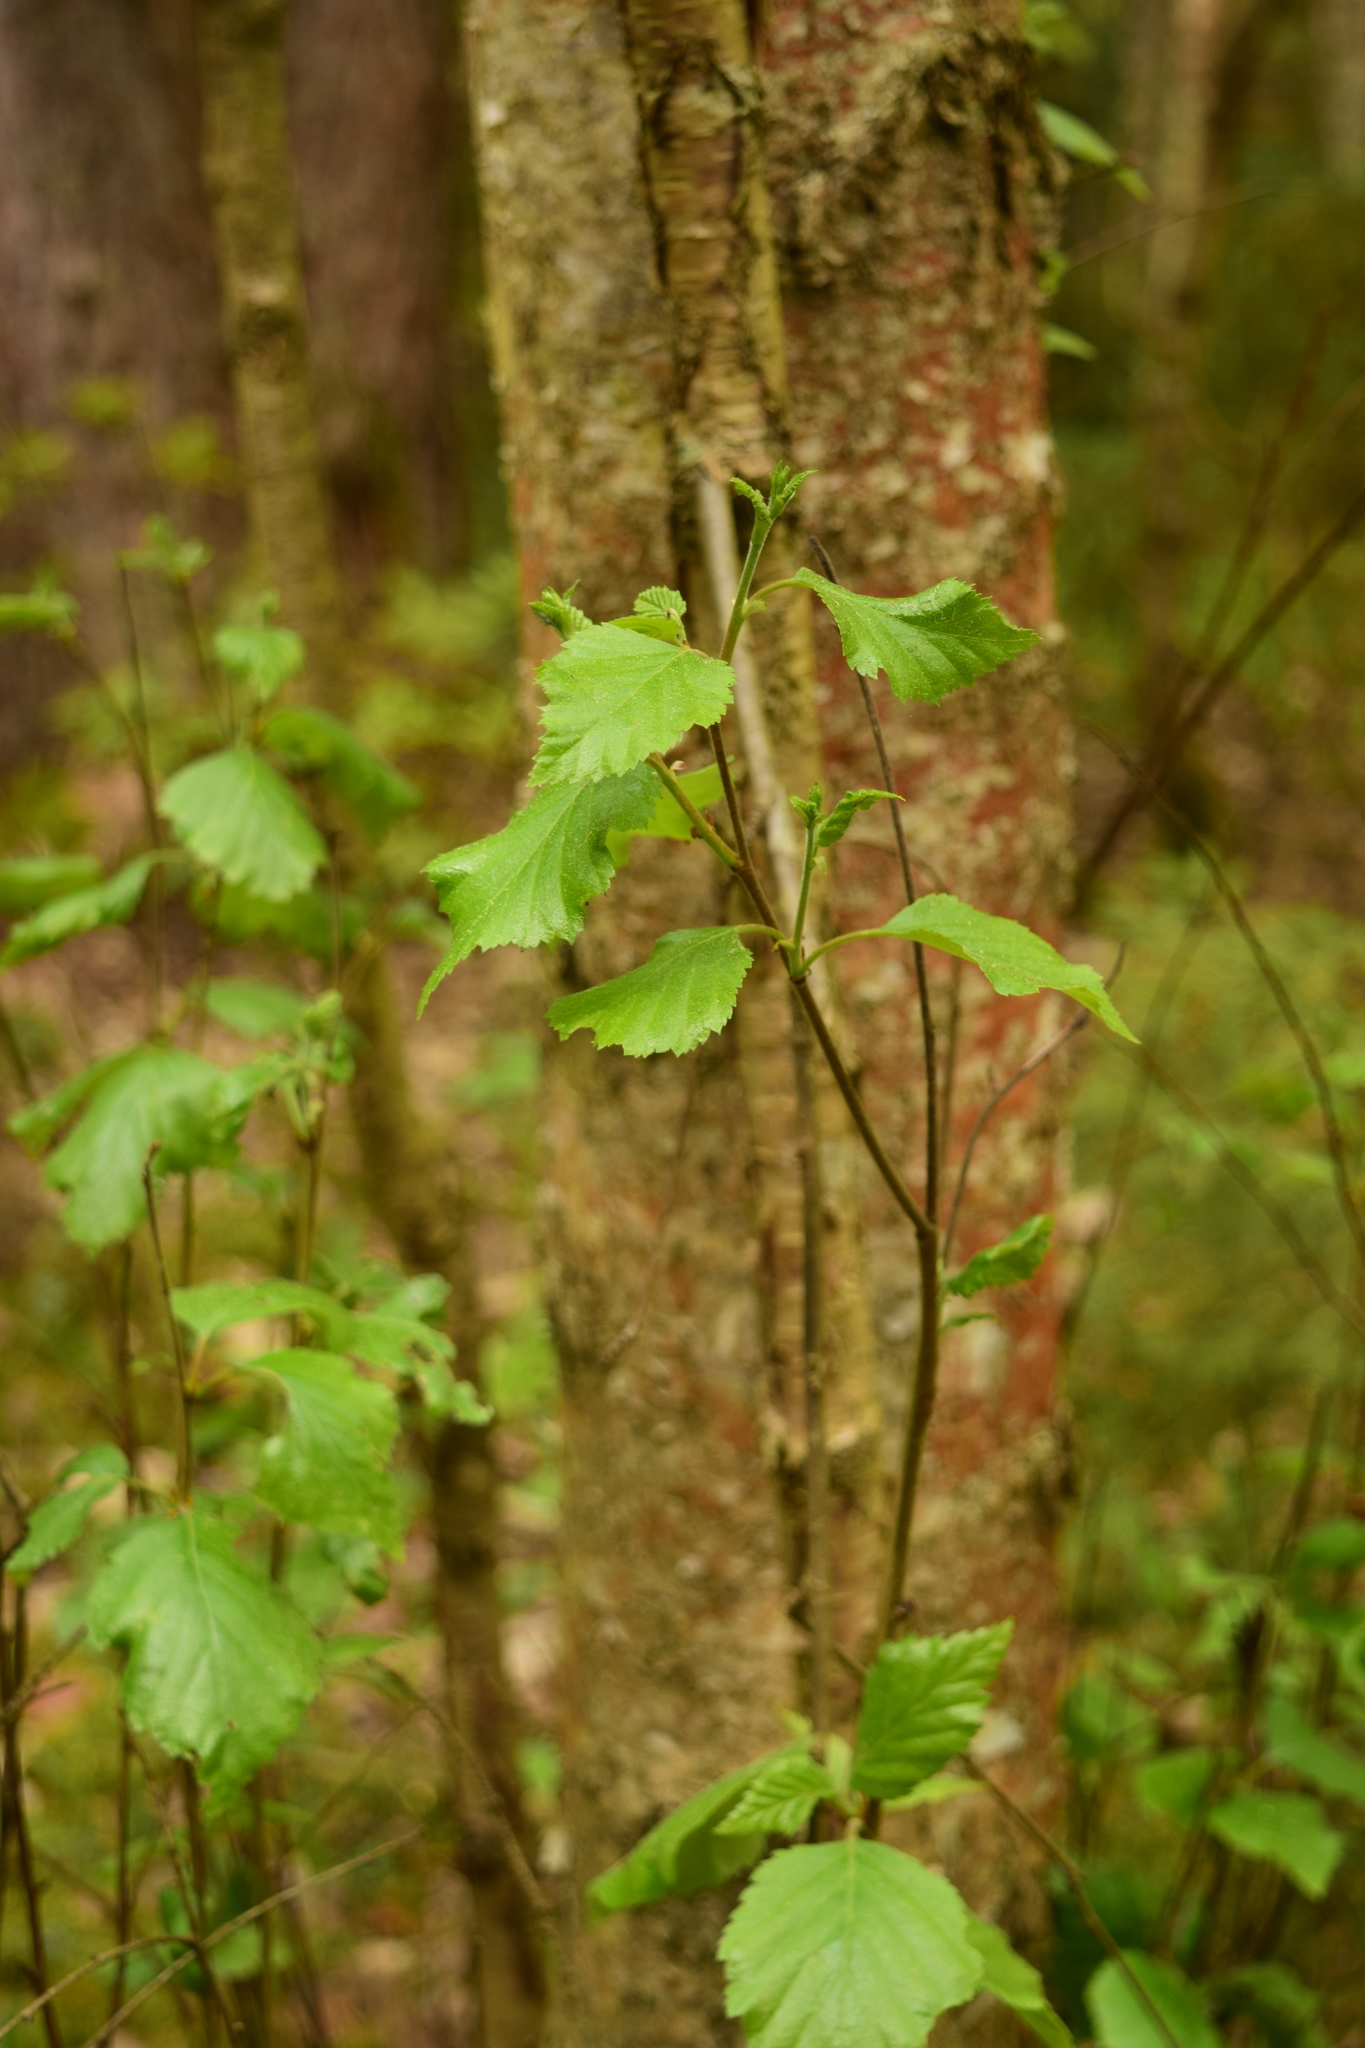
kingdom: Plantae
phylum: Tracheophyta
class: Magnoliopsida
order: Fagales
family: Betulaceae
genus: Betula
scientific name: Betula pubescens
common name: Downy birch
